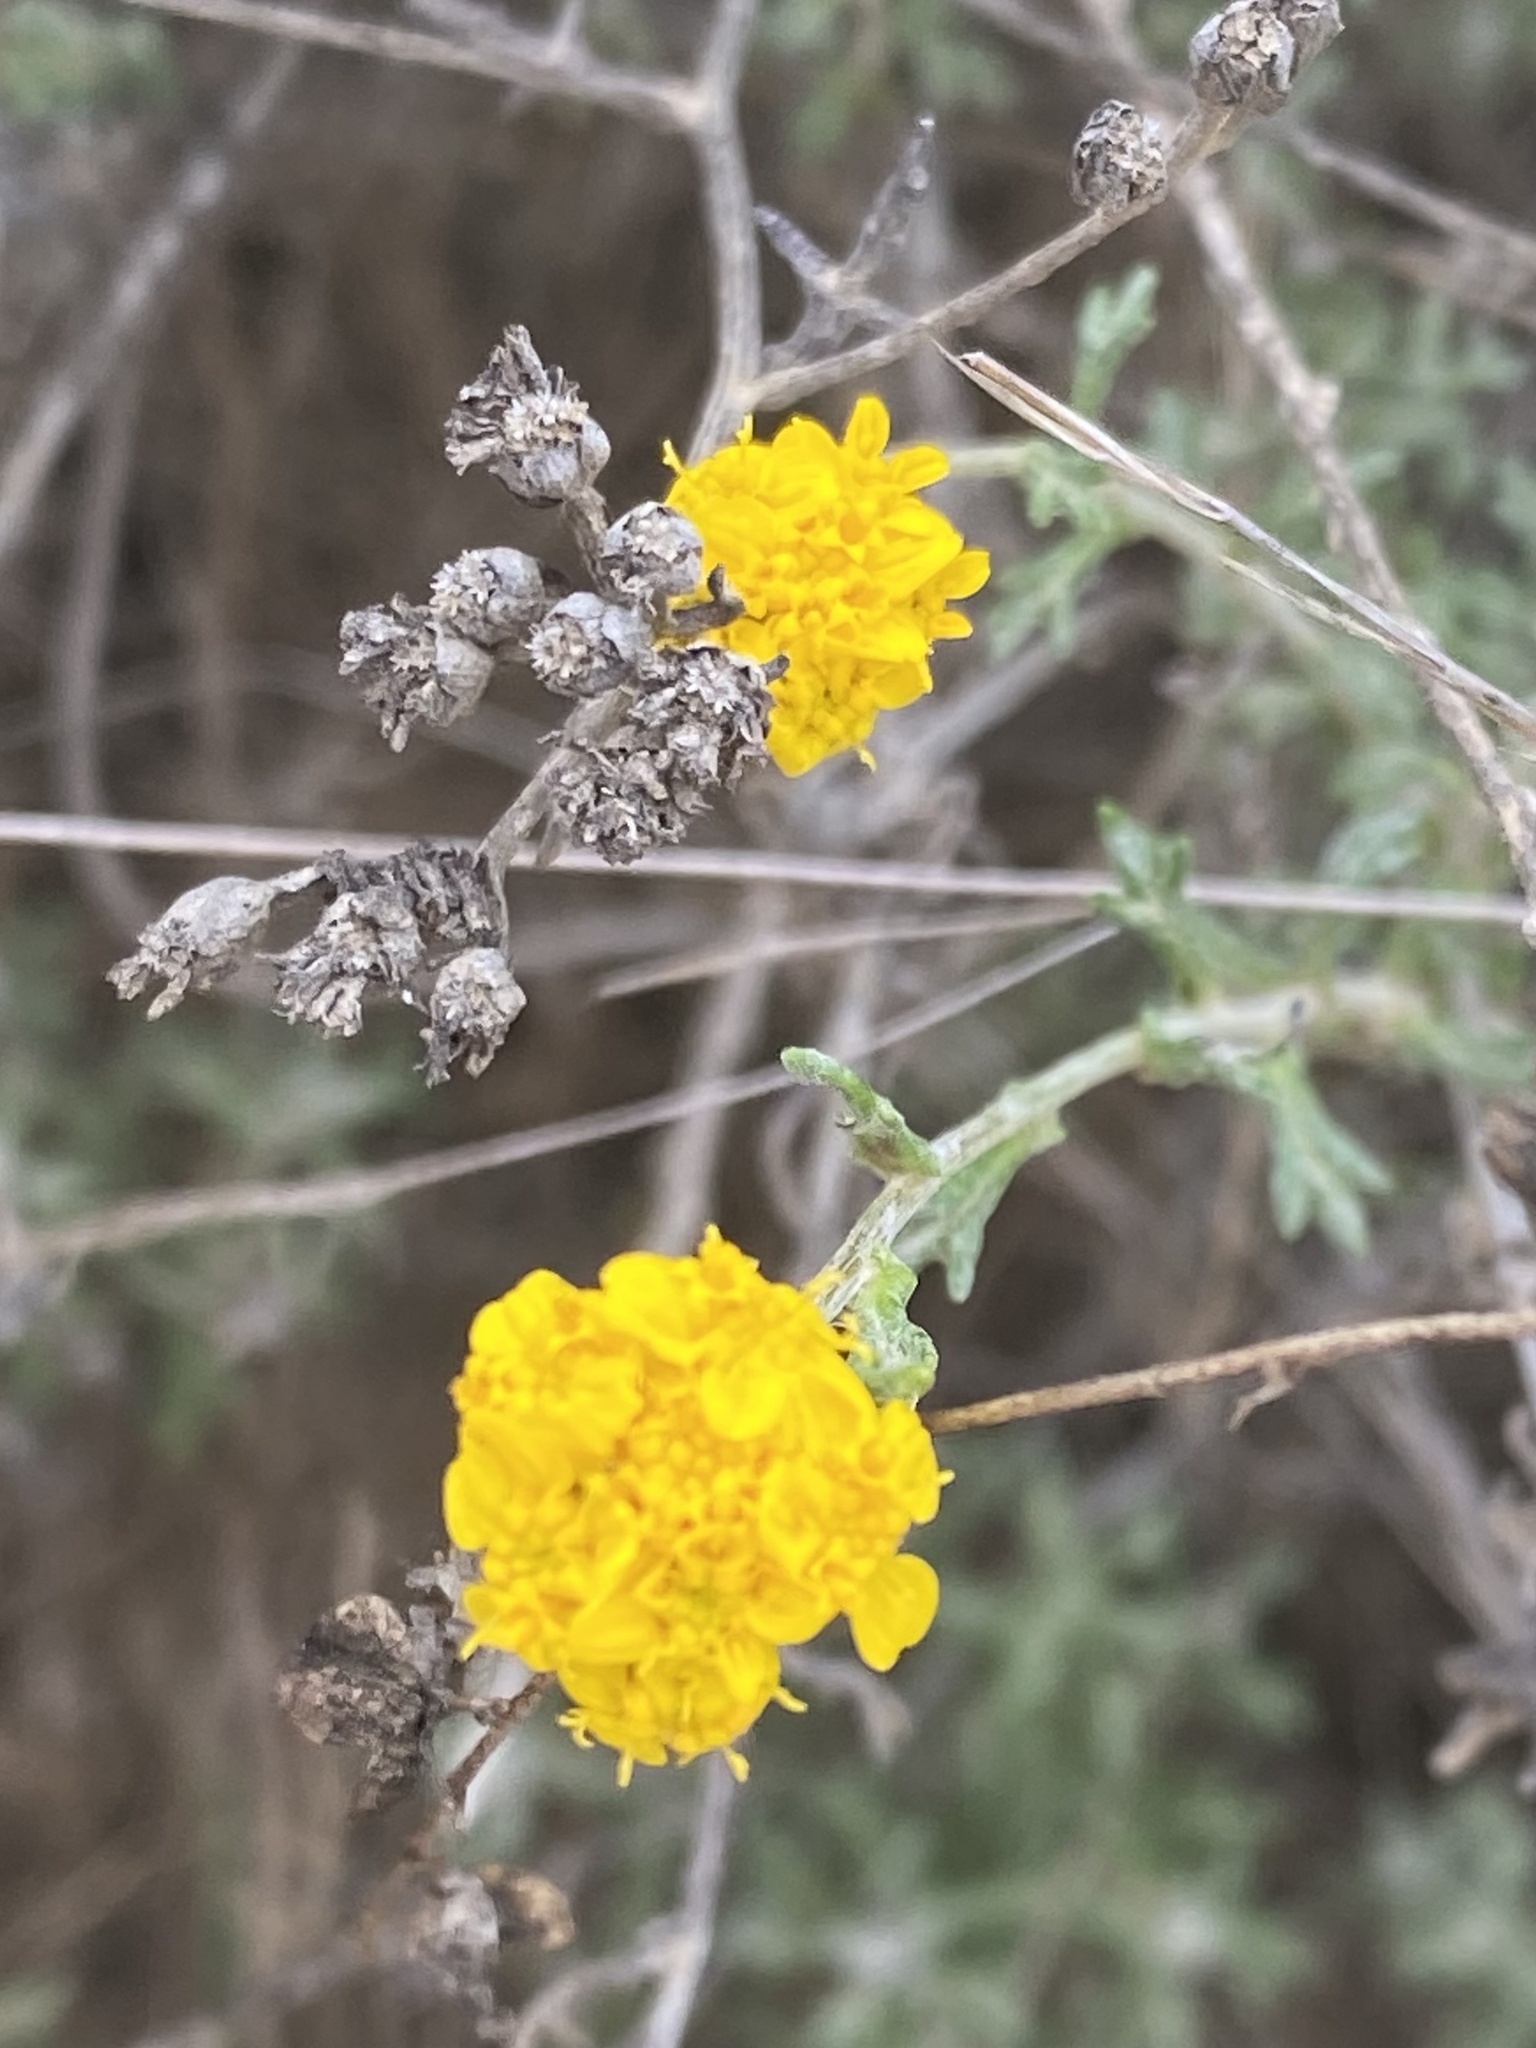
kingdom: Plantae
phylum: Tracheophyta
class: Magnoliopsida
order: Asterales
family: Asteraceae
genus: Eriophyllum
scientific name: Eriophyllum confertiflorum
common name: Golden-yarrow
